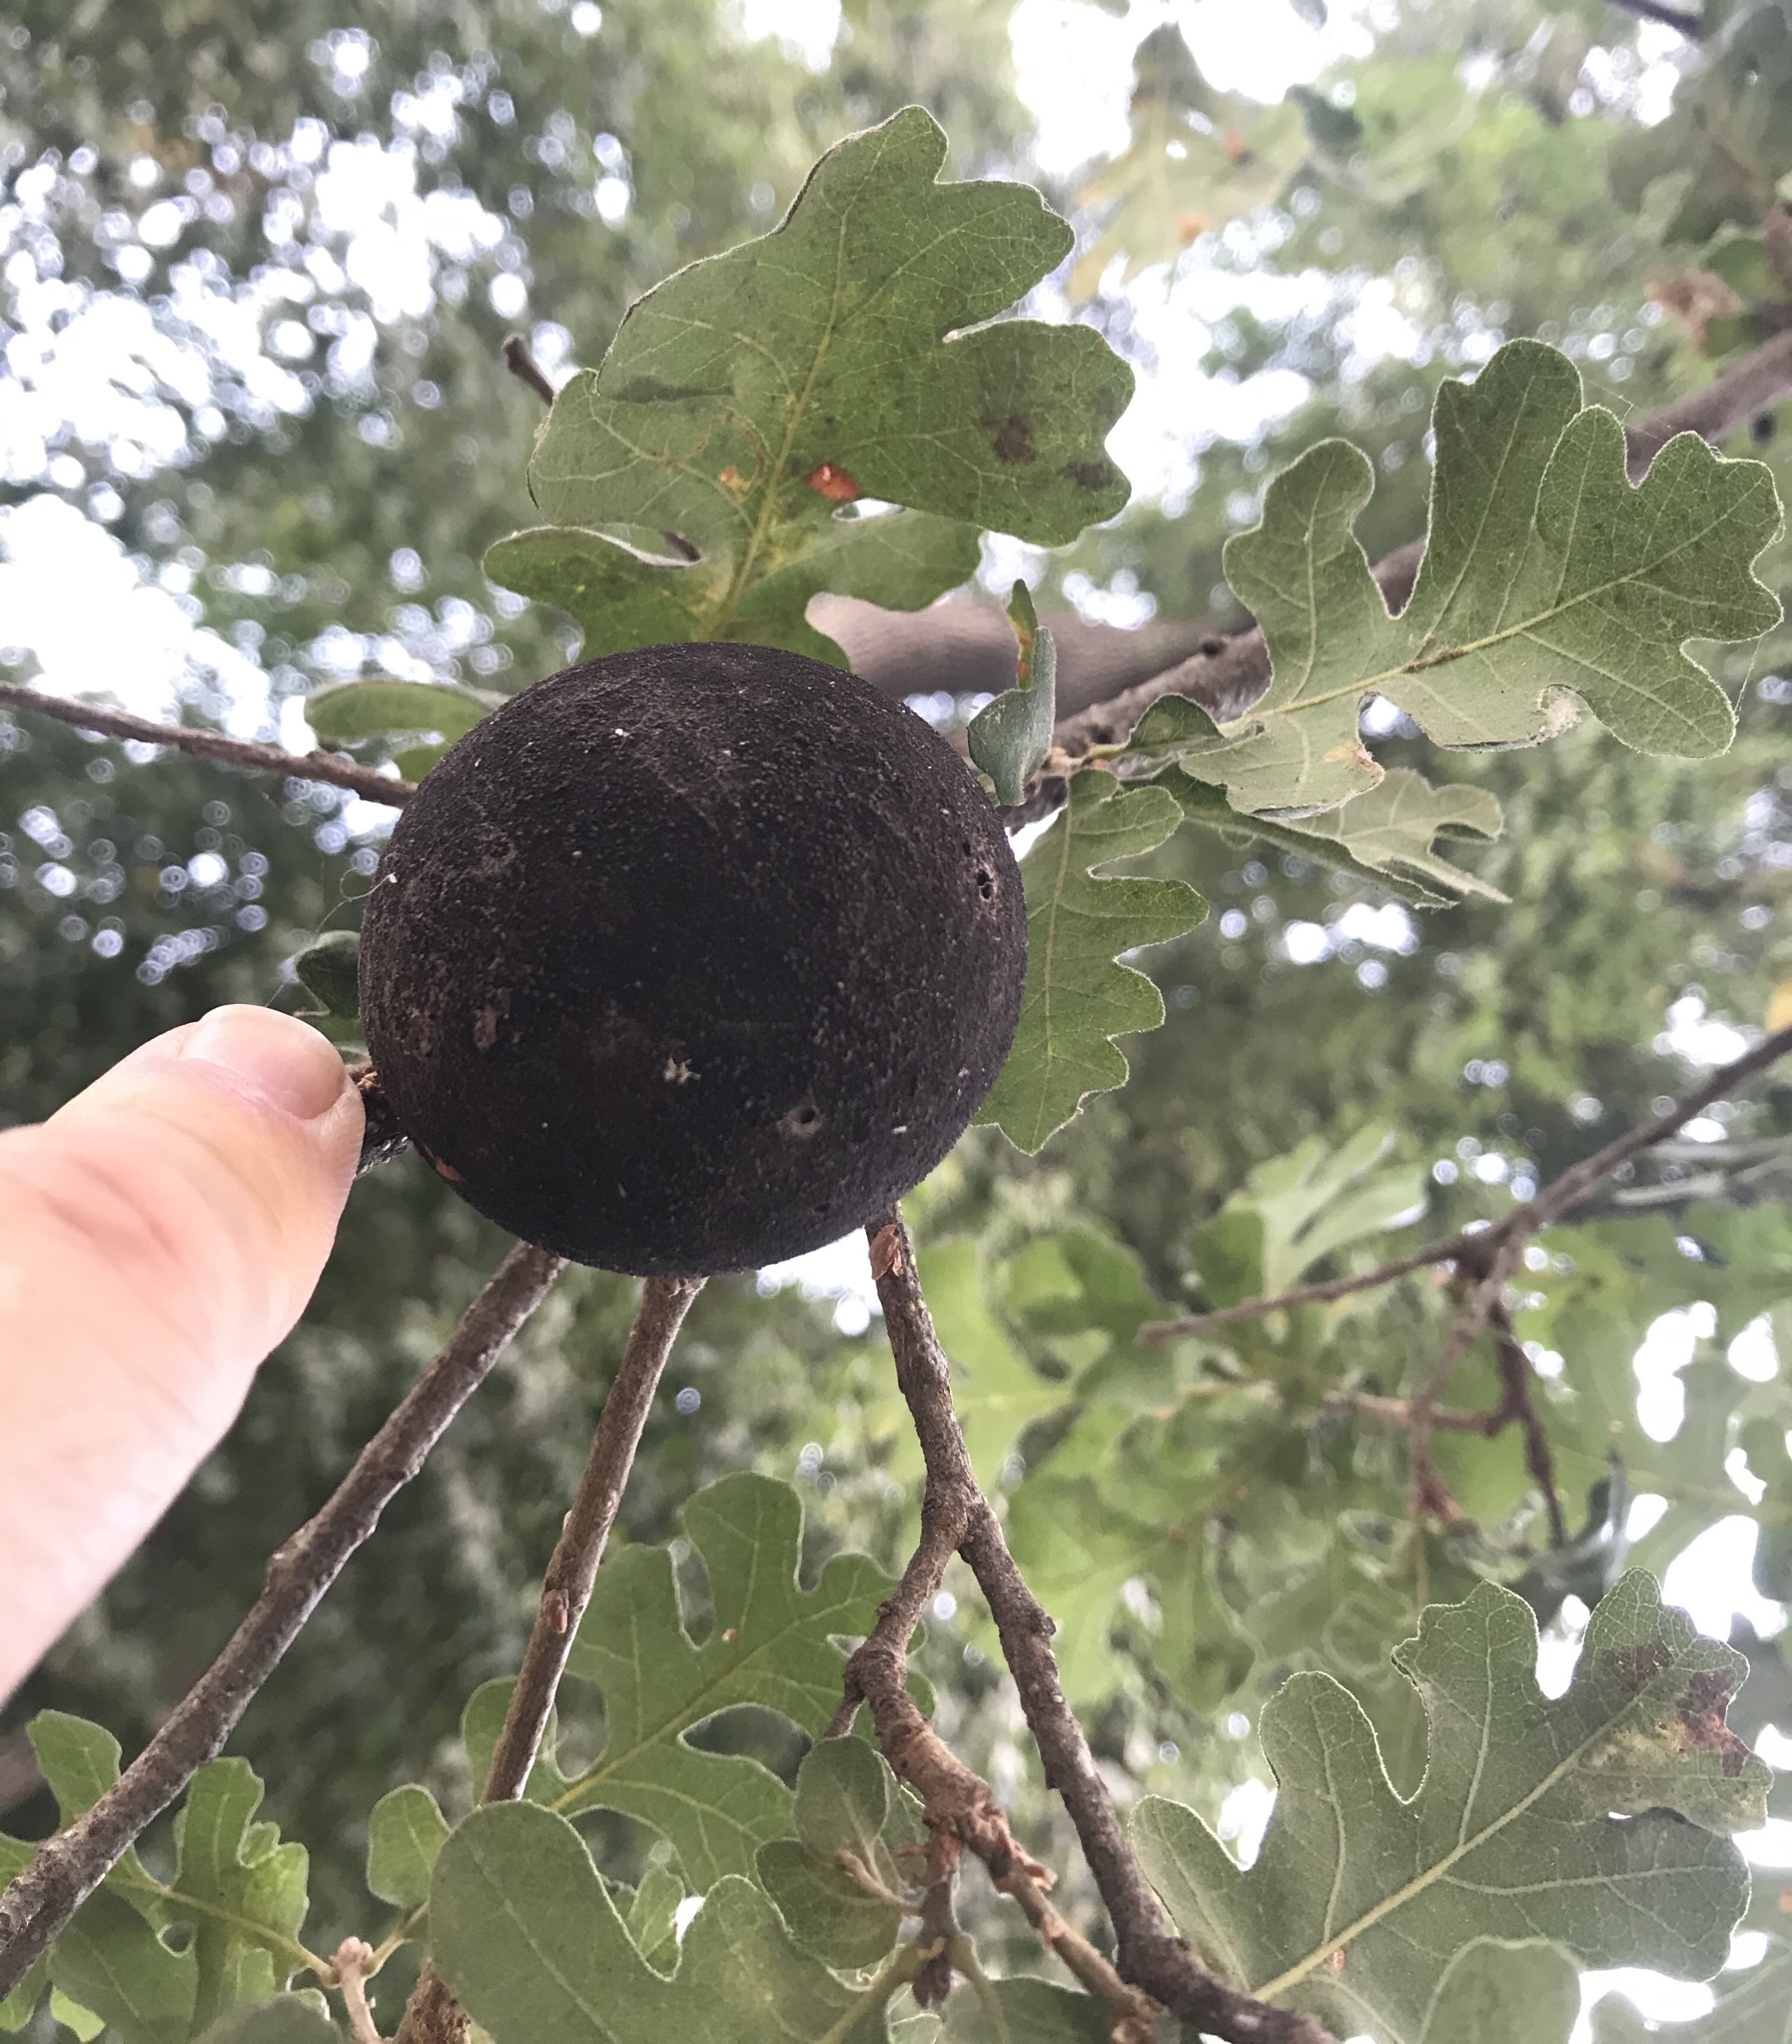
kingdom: Animalia
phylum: Arthropoda
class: Insecta
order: Hymenoptera
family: Cynipidae
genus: Andricus
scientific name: Andricus quercuscalifornicus
